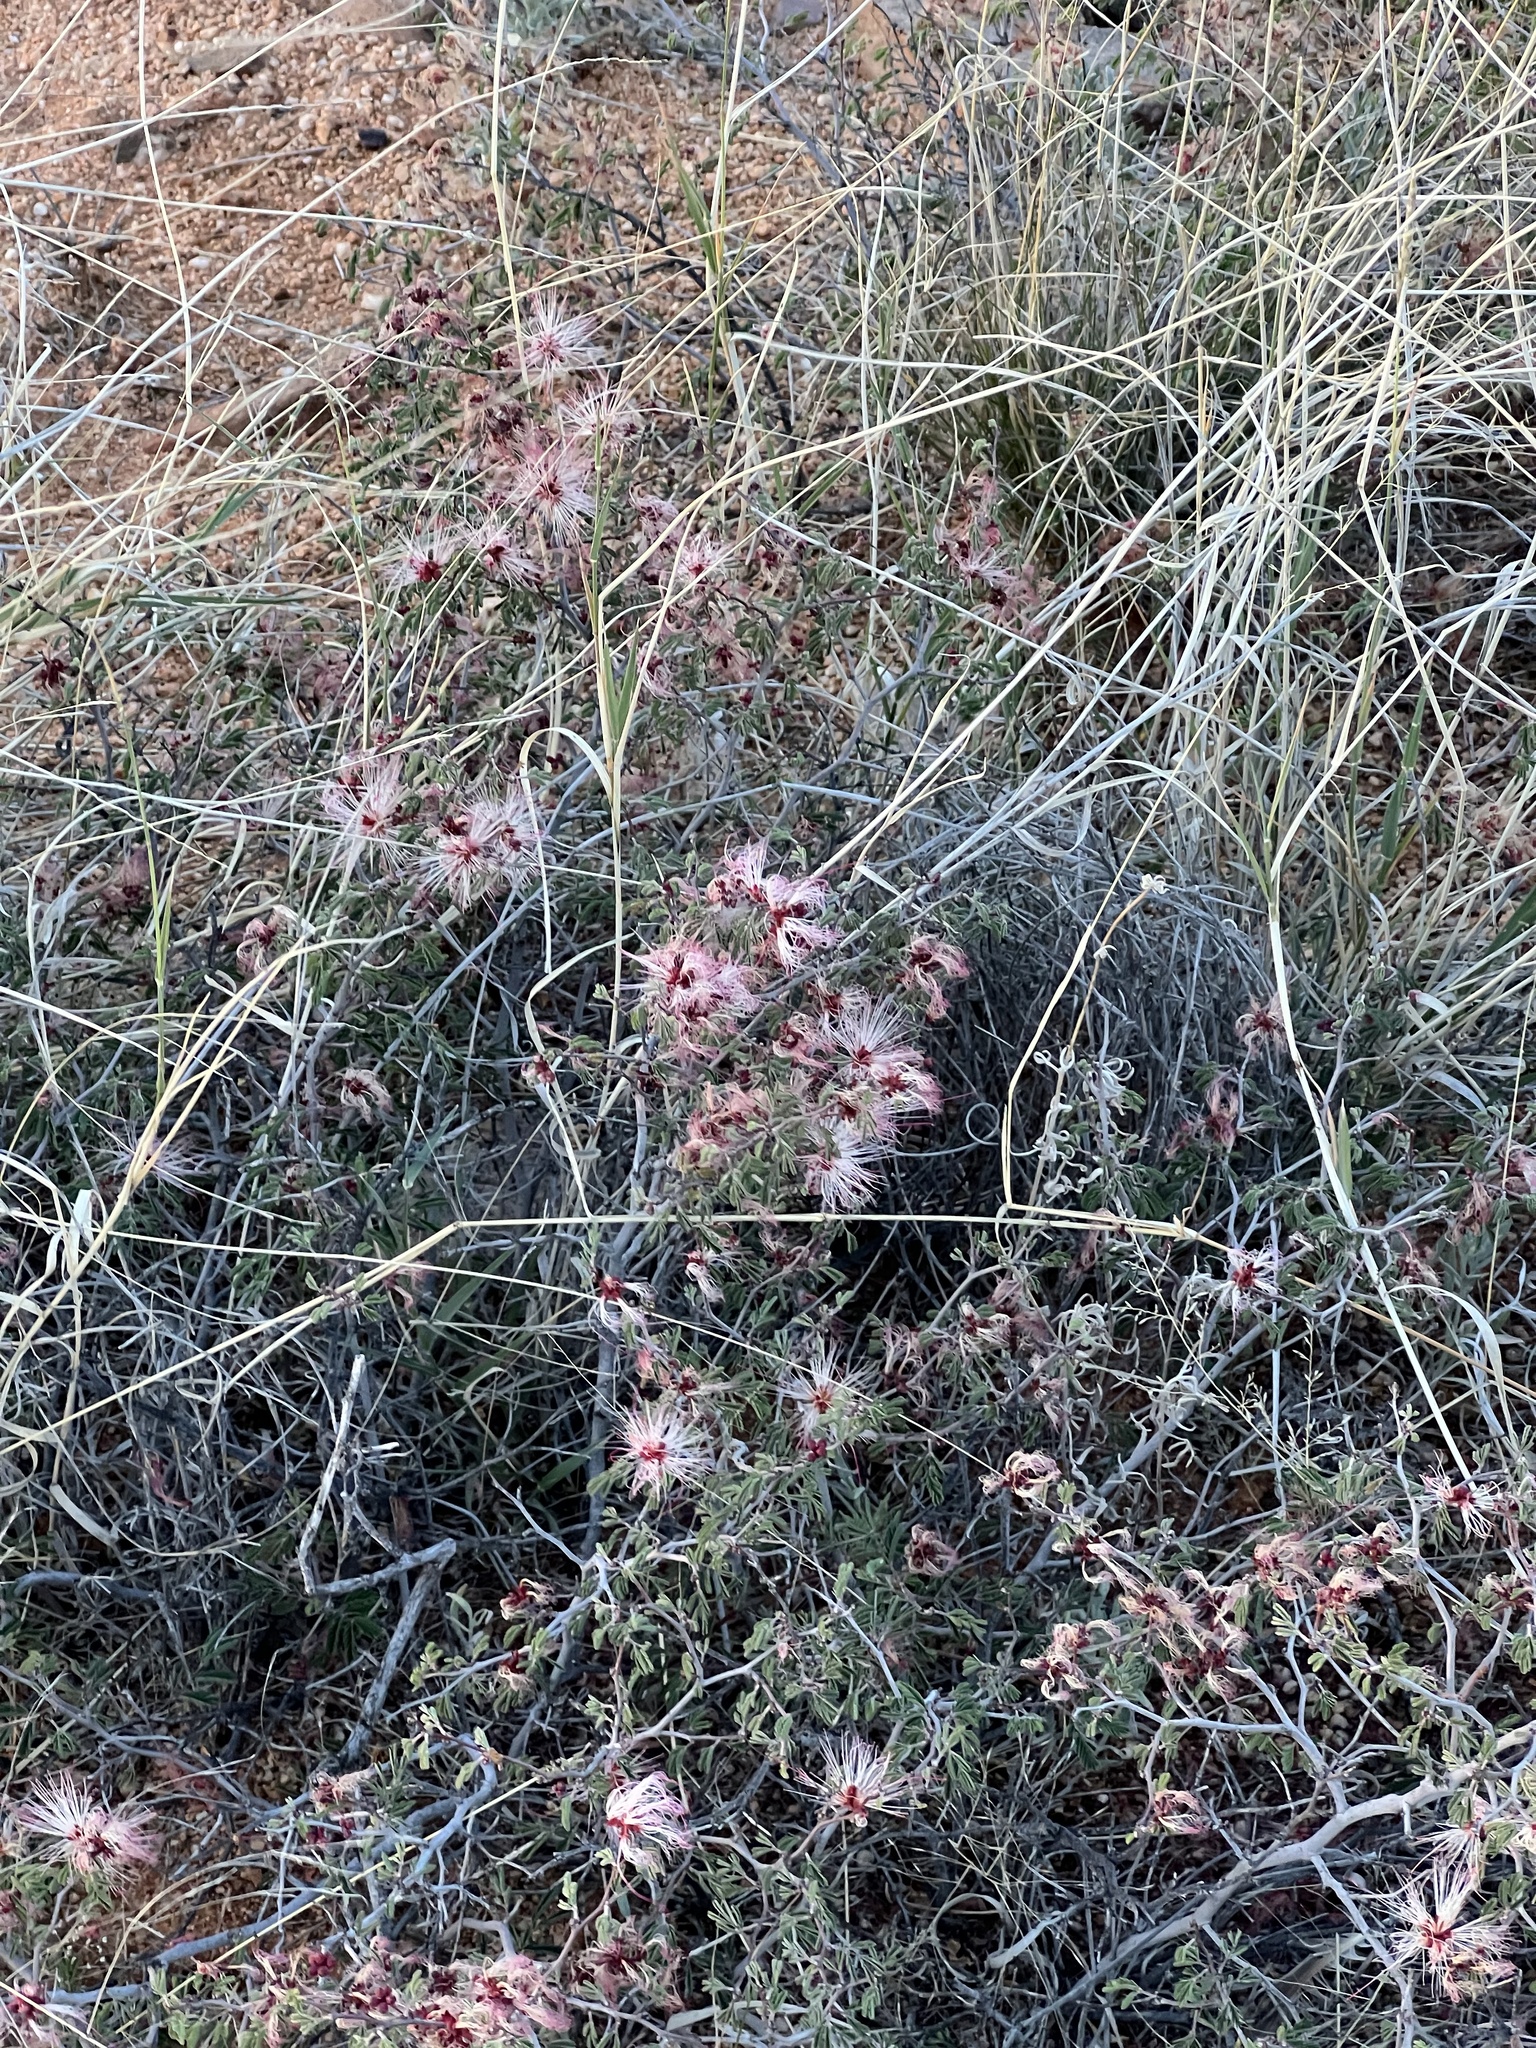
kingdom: Plantae
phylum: Tracheophyta
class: Magnoliopsida
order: Fabales
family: Fabaceae
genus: Calliandra
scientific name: Calliandra eriophylla
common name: Fairy-duster
